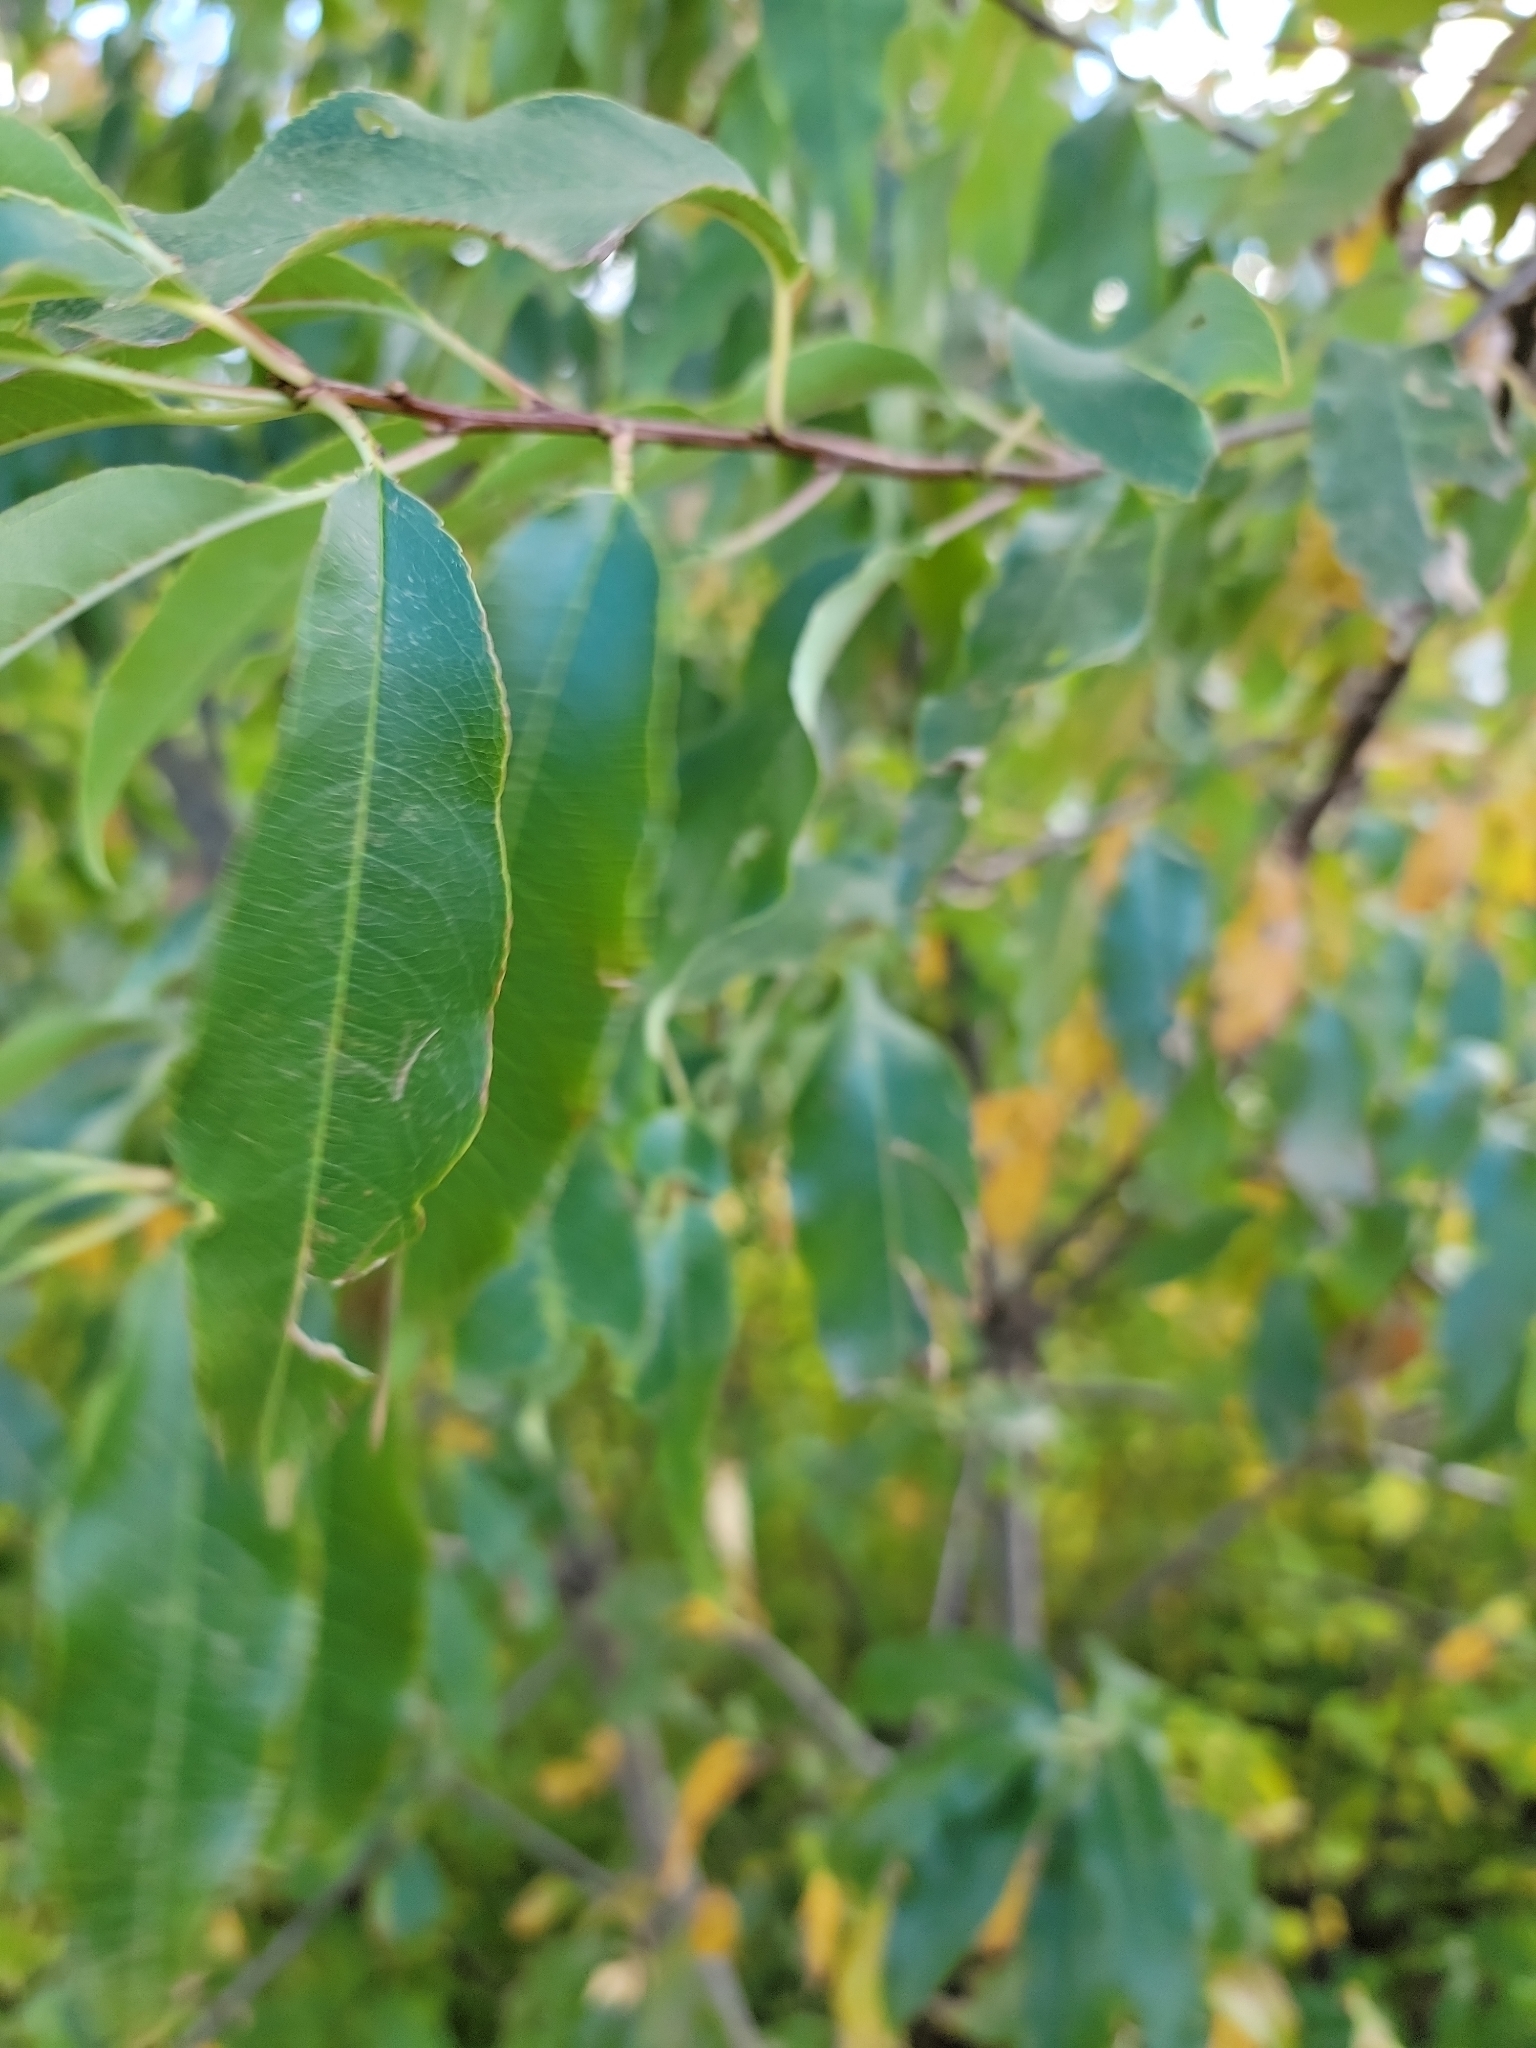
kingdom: Plantae
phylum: Tracheophyta
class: Magnoliopsida
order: Rosales
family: Rosaceae
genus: Prunus
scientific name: Prunus serotina
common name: Black cherry
